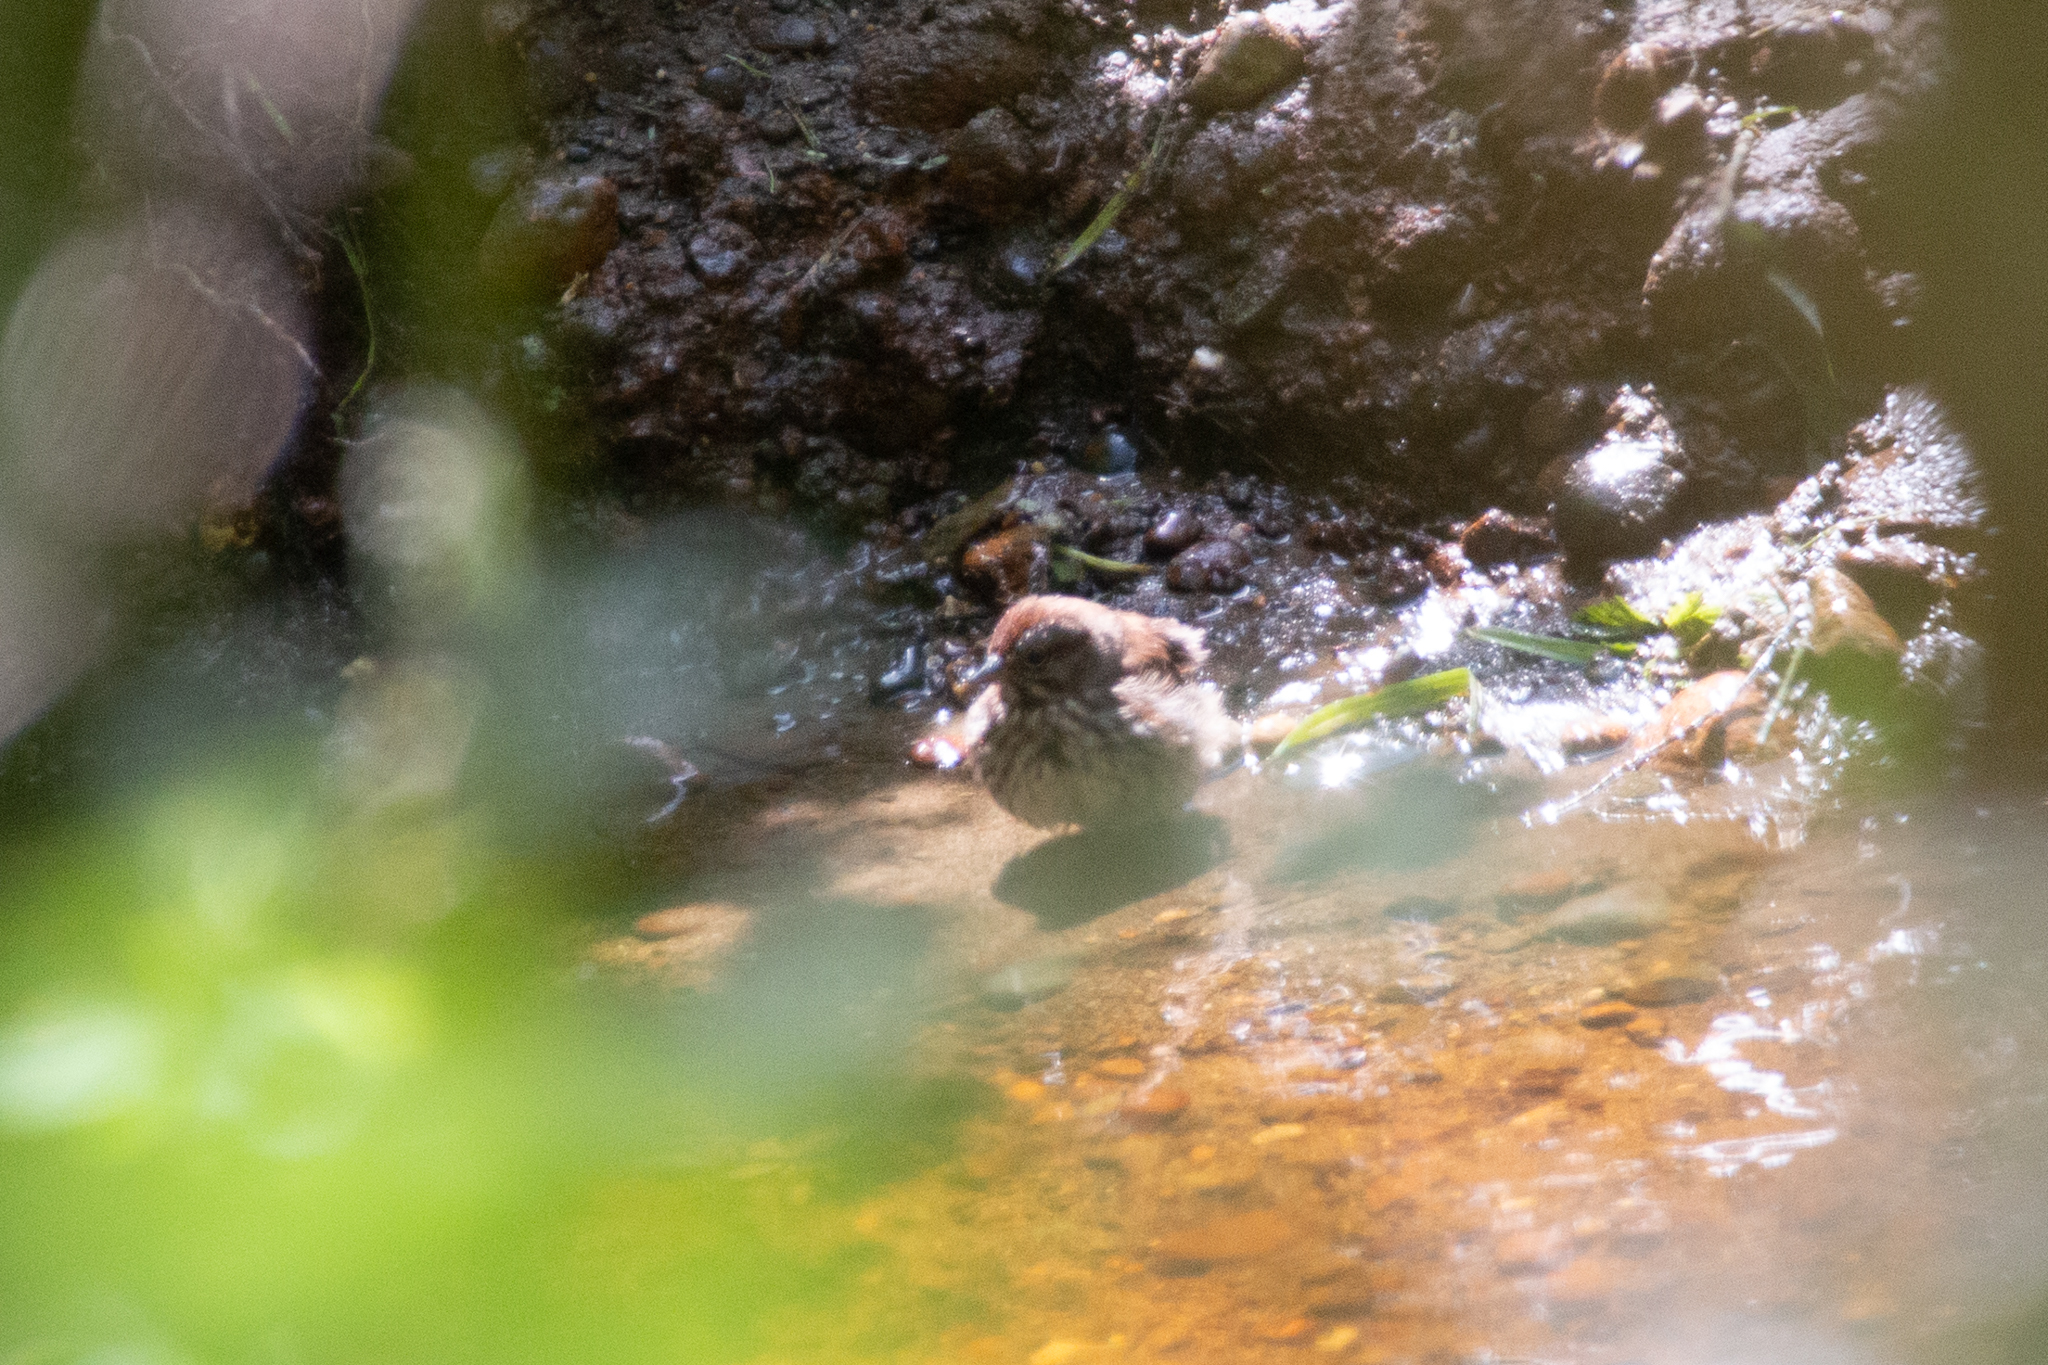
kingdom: Animalia
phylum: Chordata
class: Aves
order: Passeriformes
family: Passerellidae
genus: Melospiza
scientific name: Melospiza melodia
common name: Song sparrow
